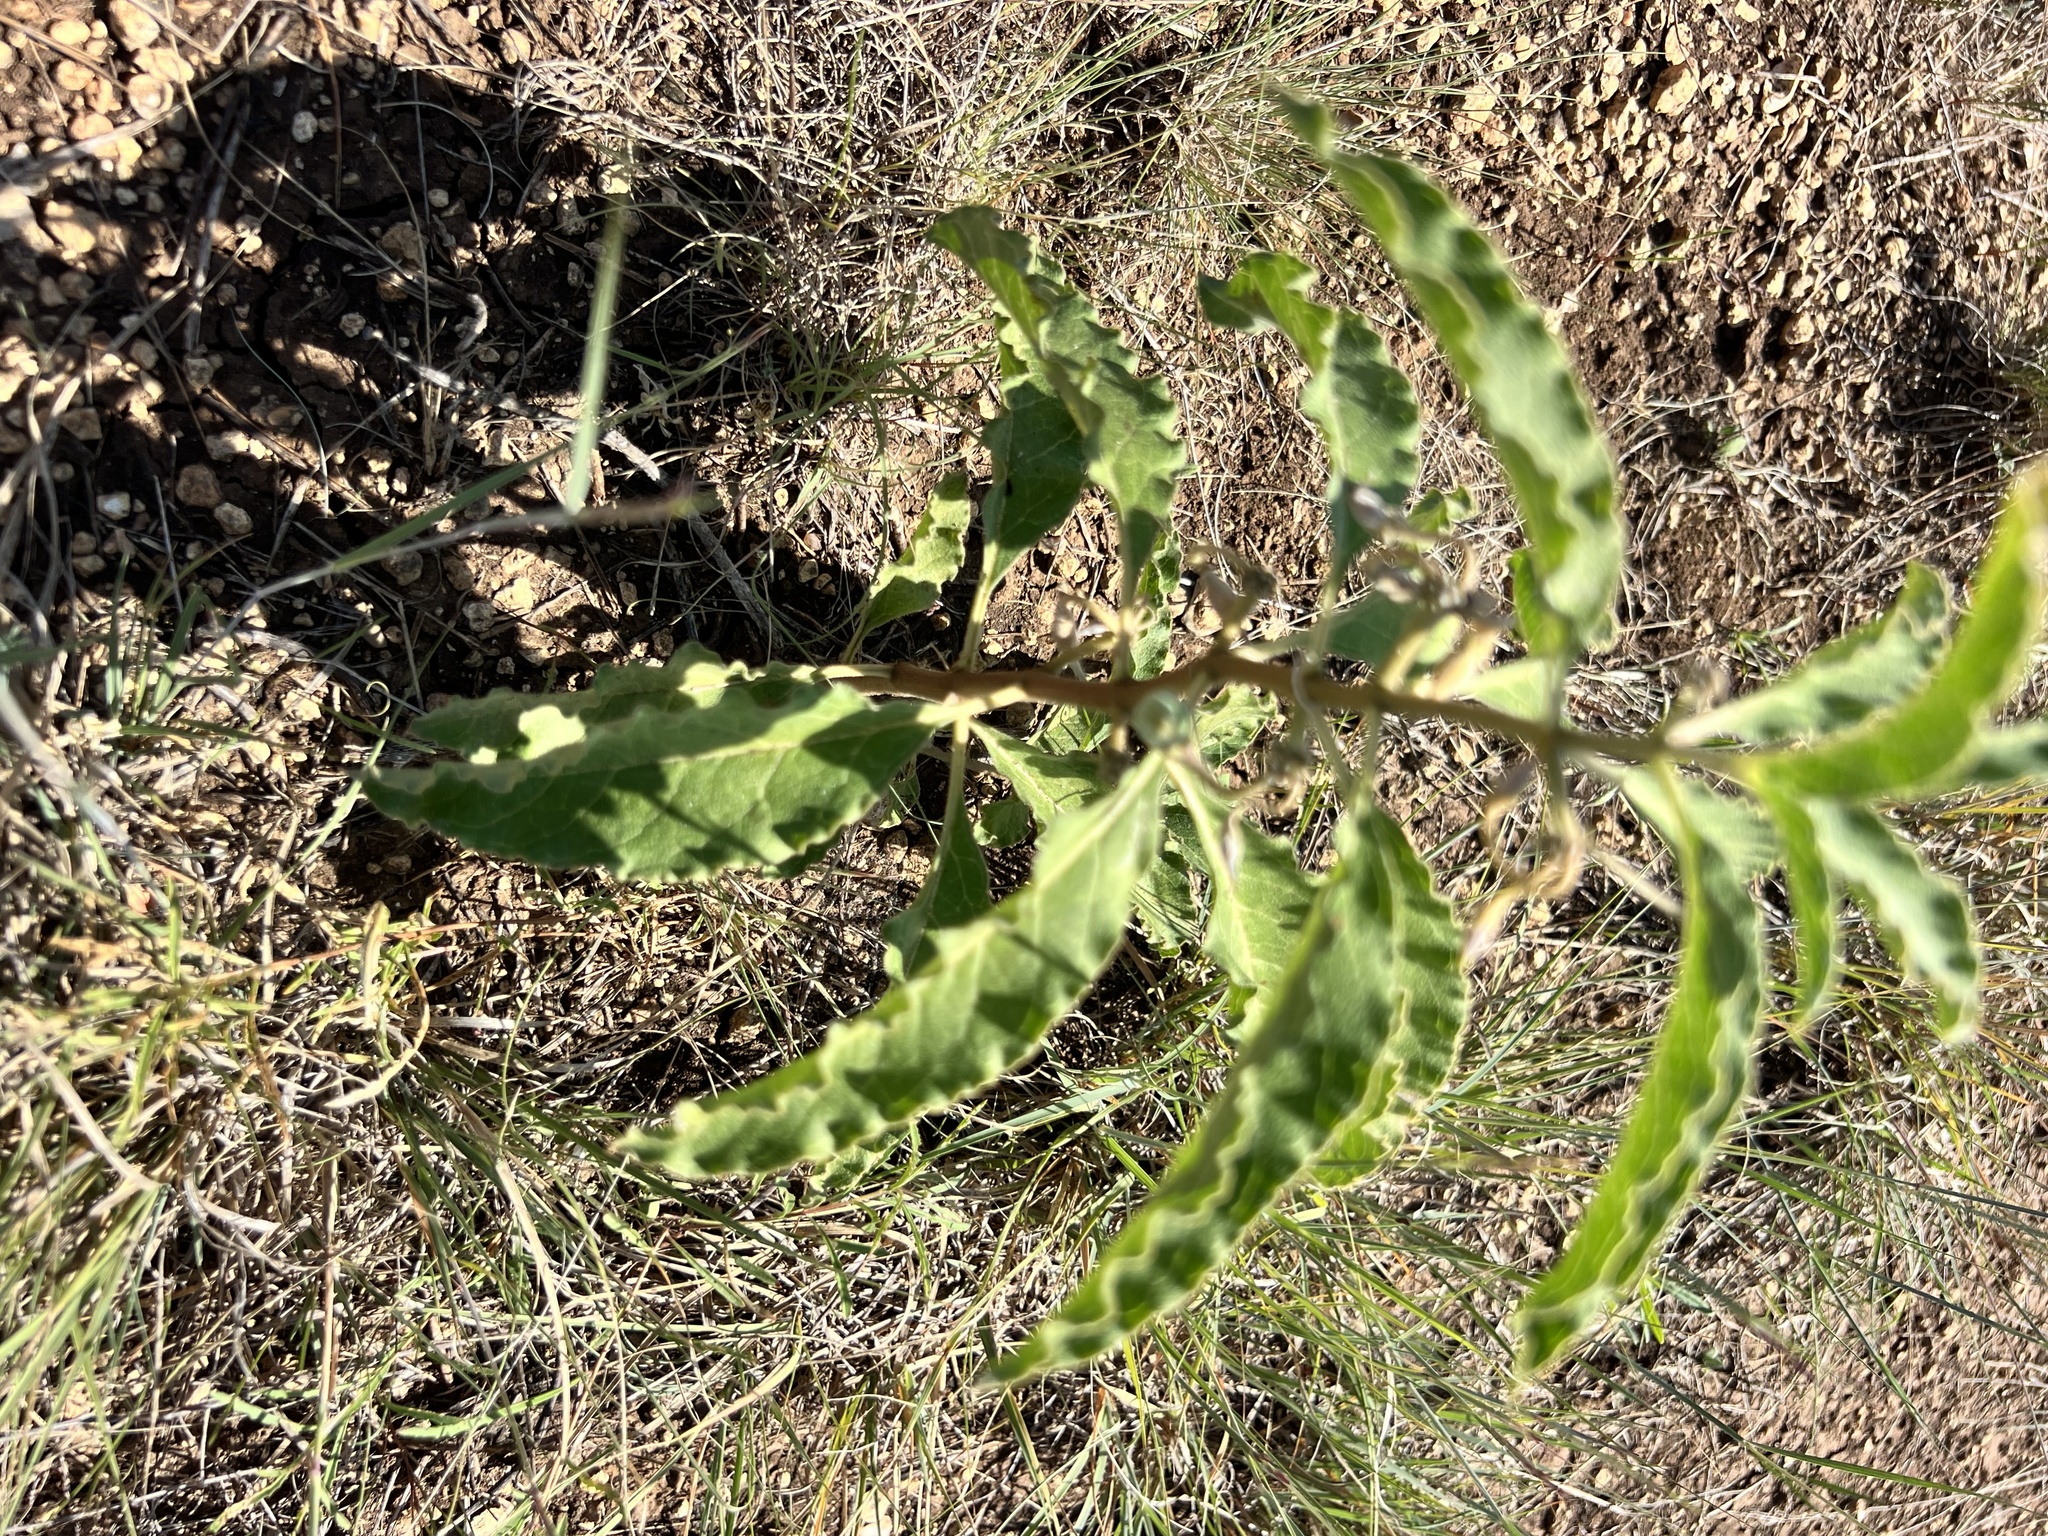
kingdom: Plantae
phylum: Tracheophyta
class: Magnoliopsida
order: Gentianales
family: Apocynaceae
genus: Asclepias
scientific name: Asclepias oenotheroides
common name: Zizotes milkweed
